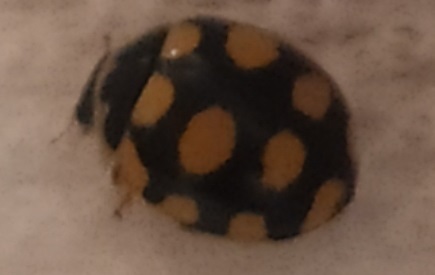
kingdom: Animalia
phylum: Arthropoda
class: Insecta
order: Coleoptera
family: Coccinellidae
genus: Coccinula
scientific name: Coccinula quatuordecimpustulata
